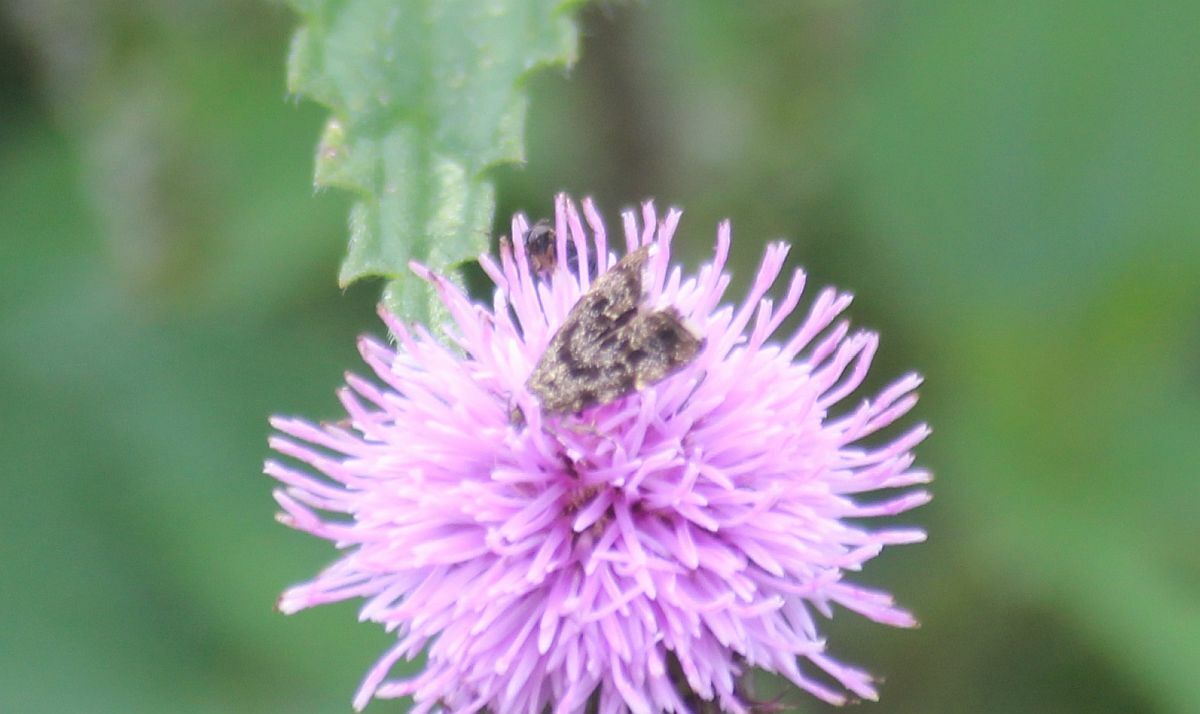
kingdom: Animalia
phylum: Arthropoda
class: Insecta
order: Lepidoptera
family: Choreutidae
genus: Anthophila
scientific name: Anthophila fabriciana
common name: Nettle-tap
